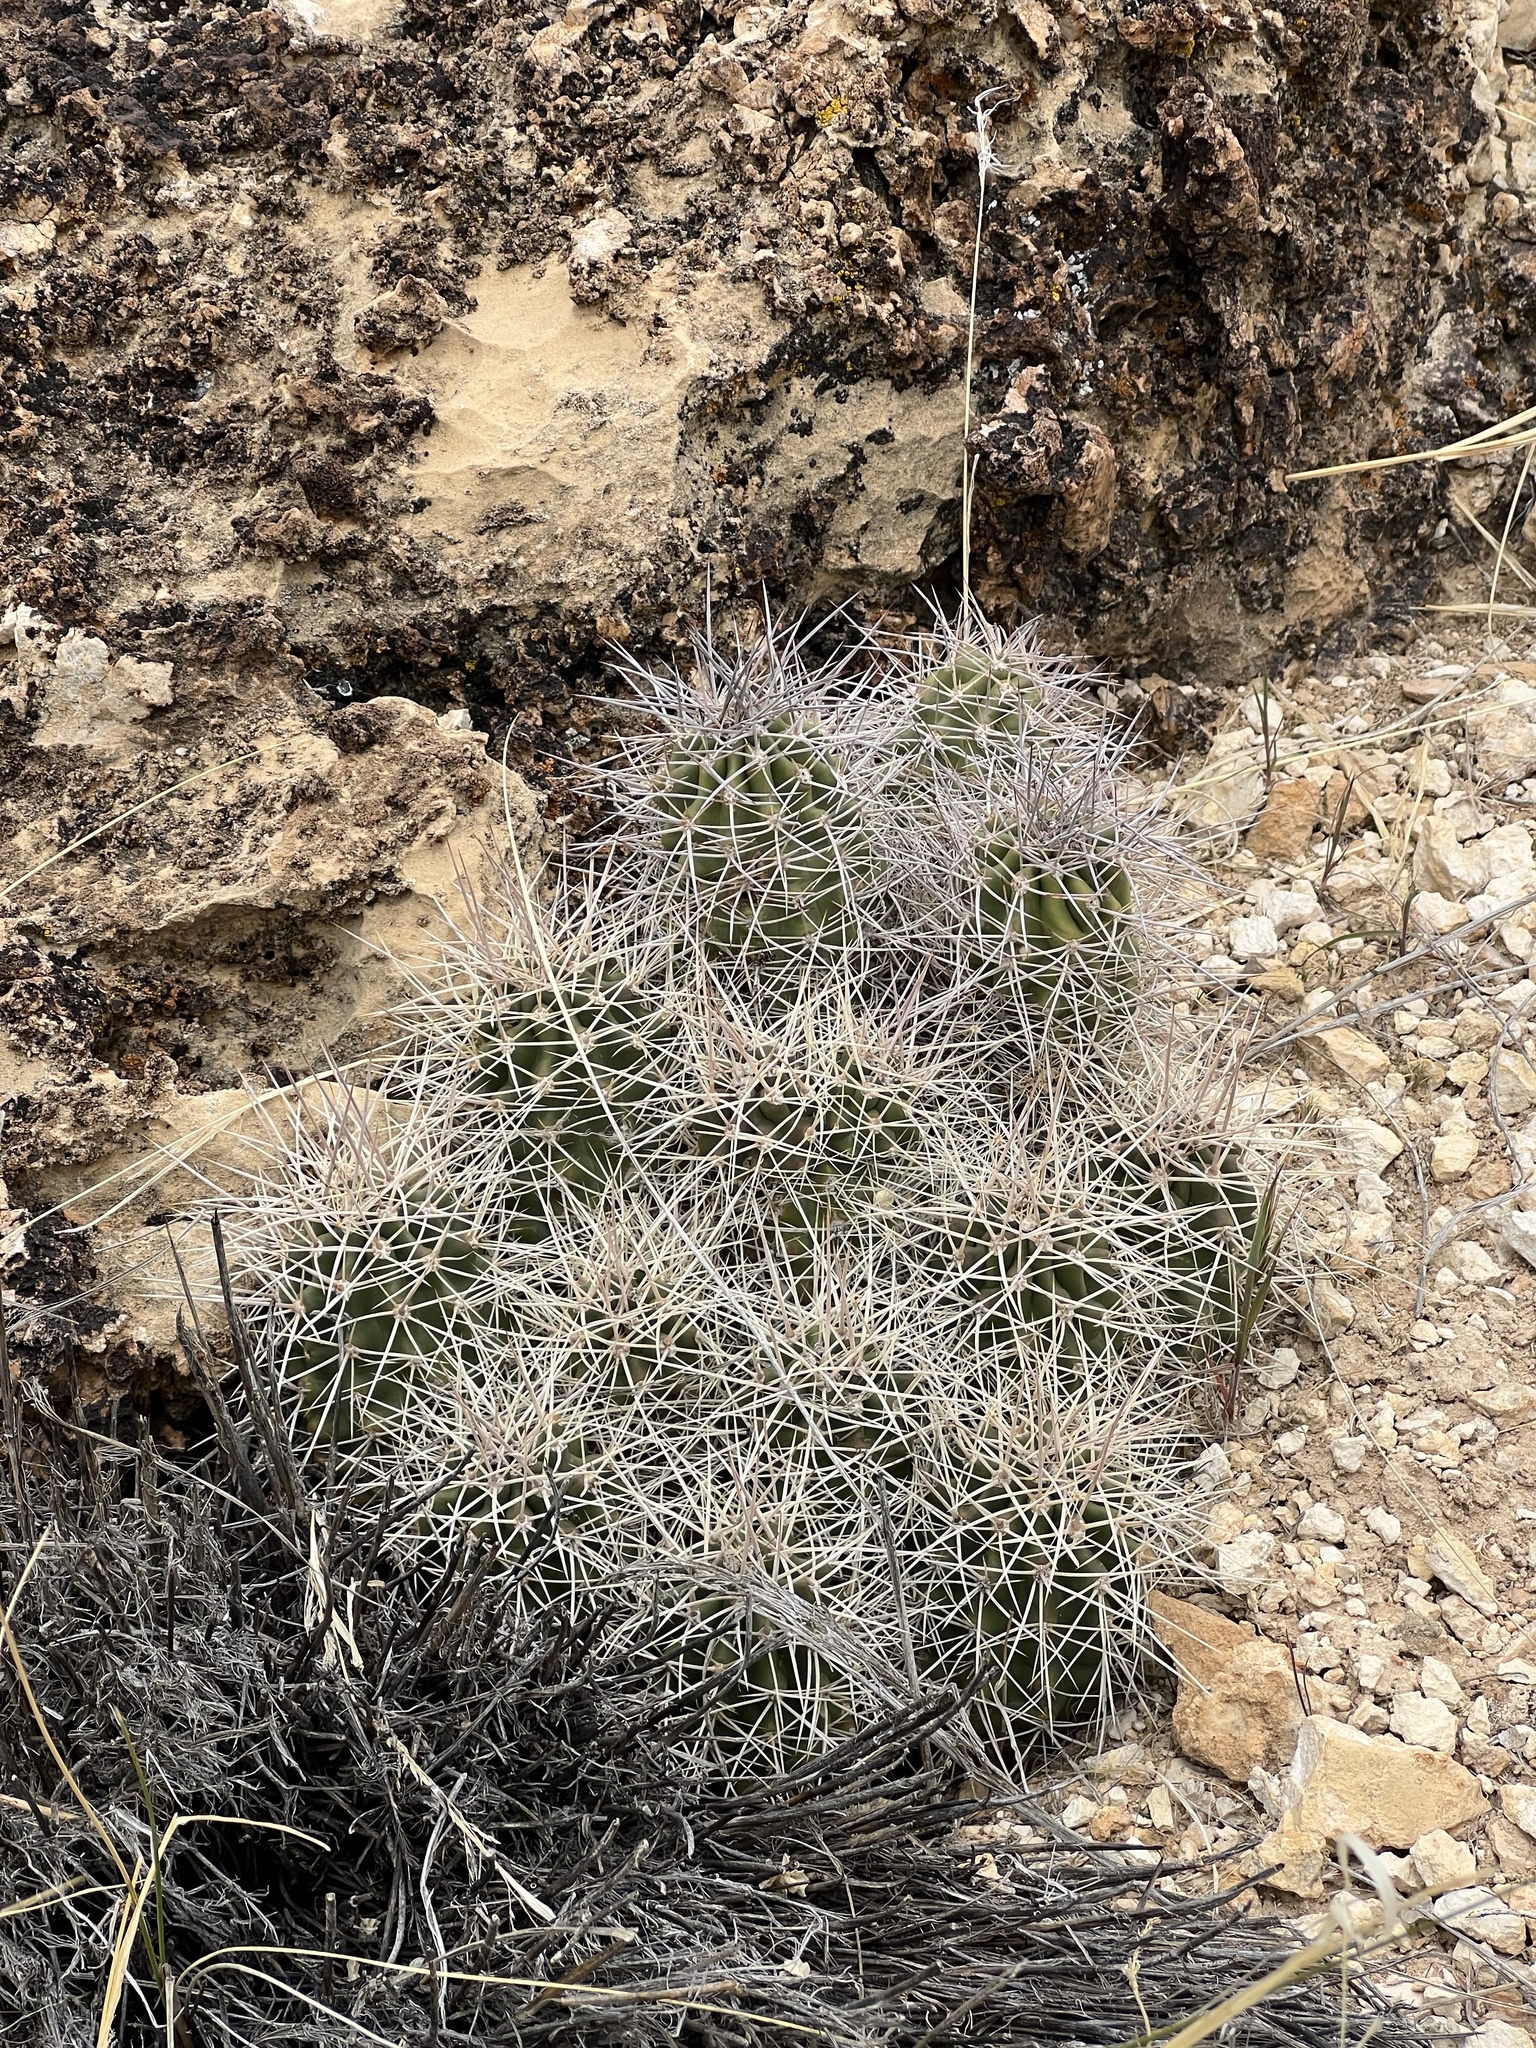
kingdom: Plantae
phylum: Tracheophyta
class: Magnoliopsida
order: Caryophyllales
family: Cactaceae
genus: Echinocereus
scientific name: Echinocereus triglochidiatus
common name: Claretcup hedgehog
